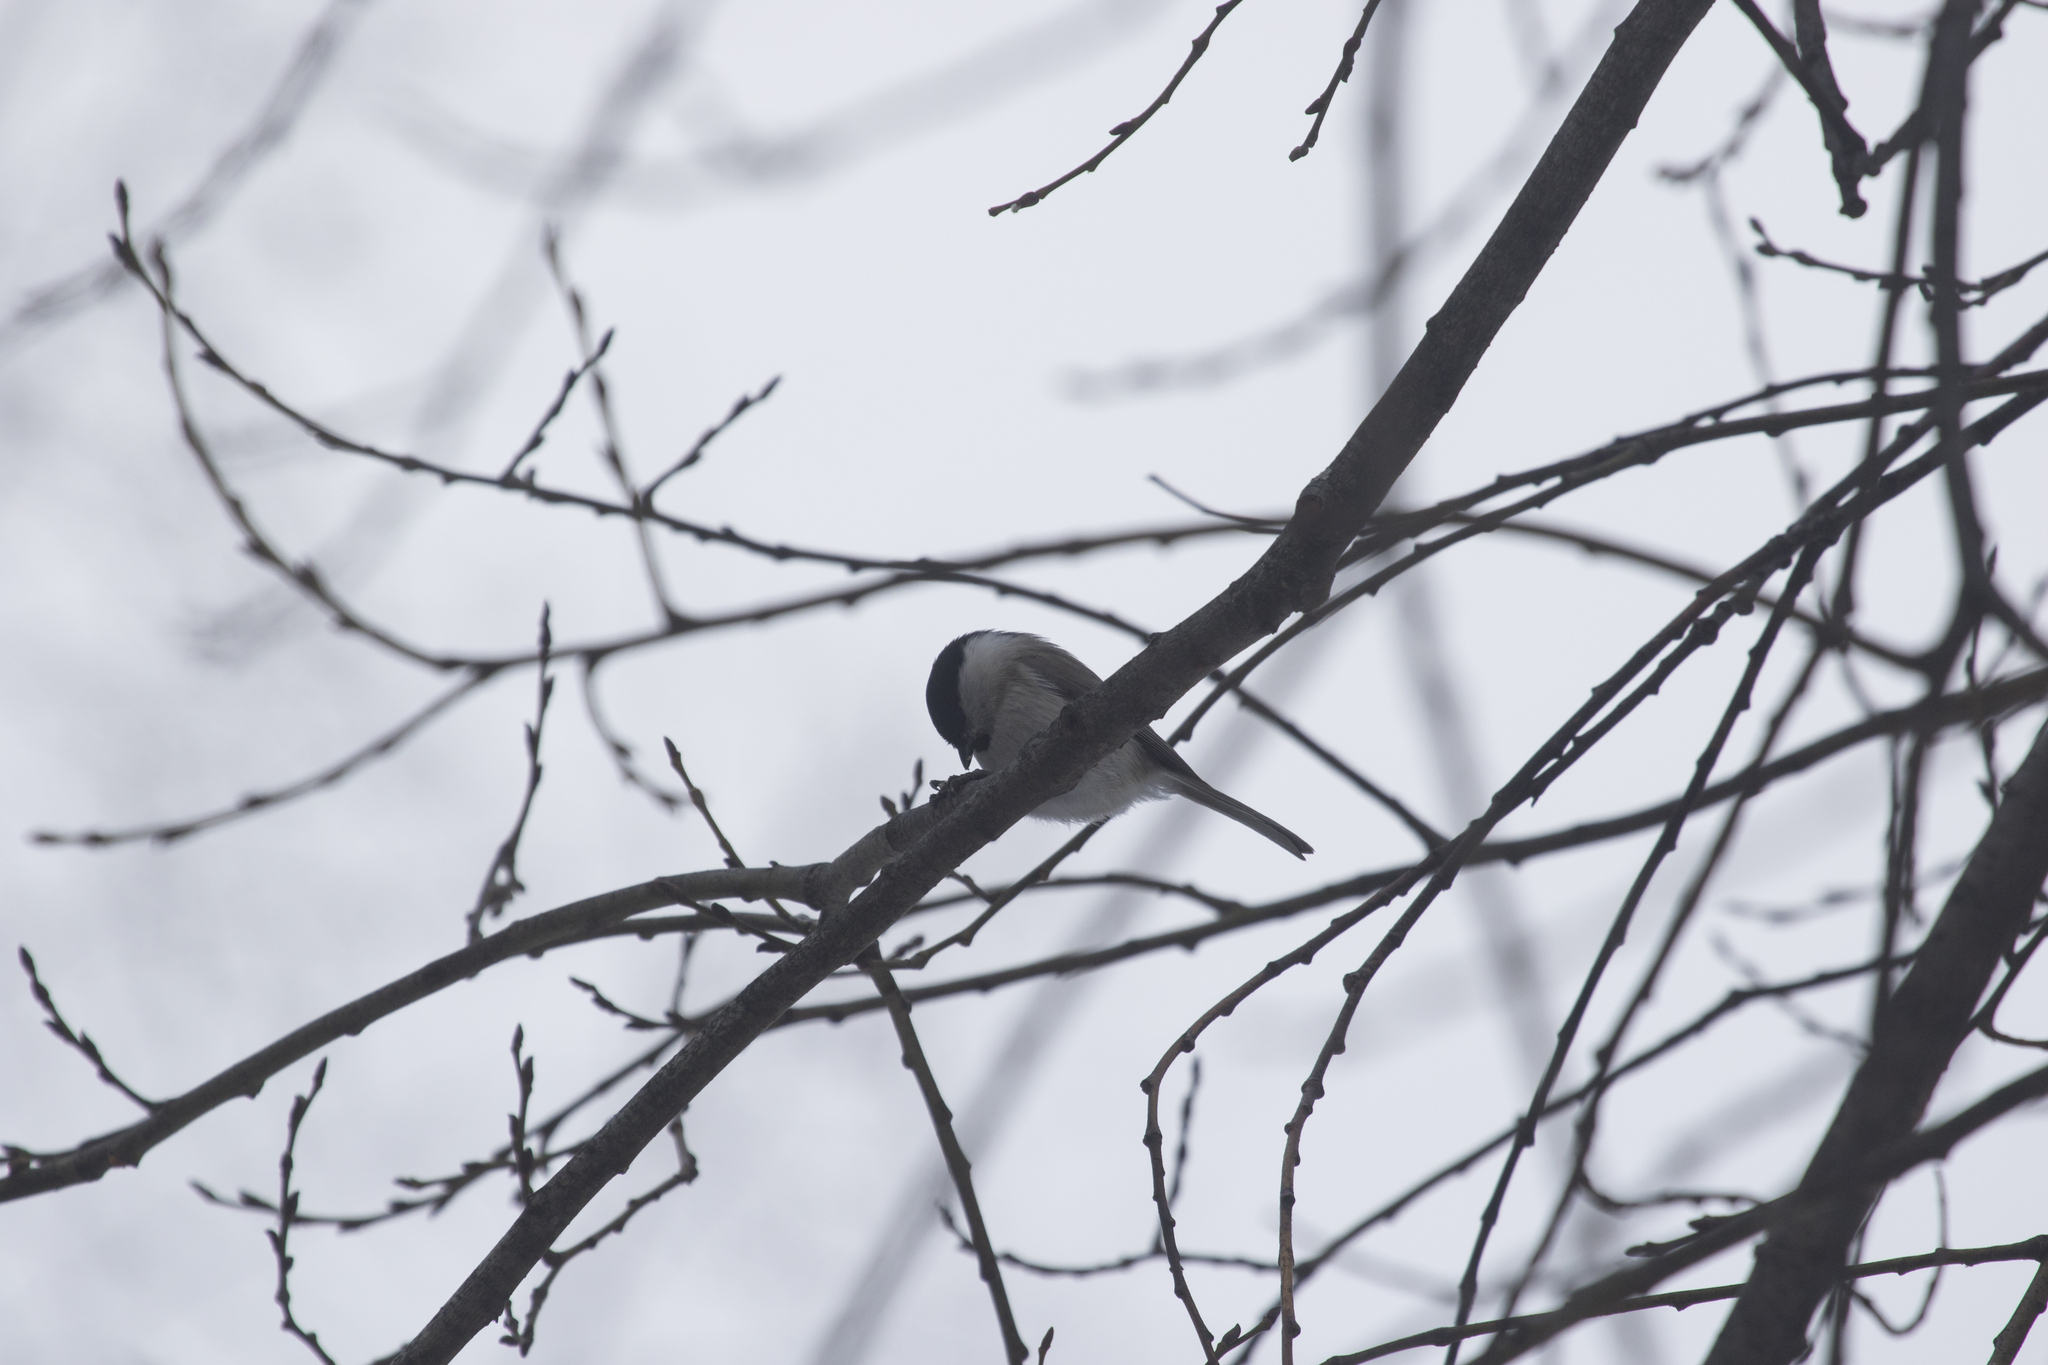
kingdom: Animalia
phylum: Chordata
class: Aves
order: Passeriformes
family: Paridae
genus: Poecile
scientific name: Poecile palustris
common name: Marsh tit
